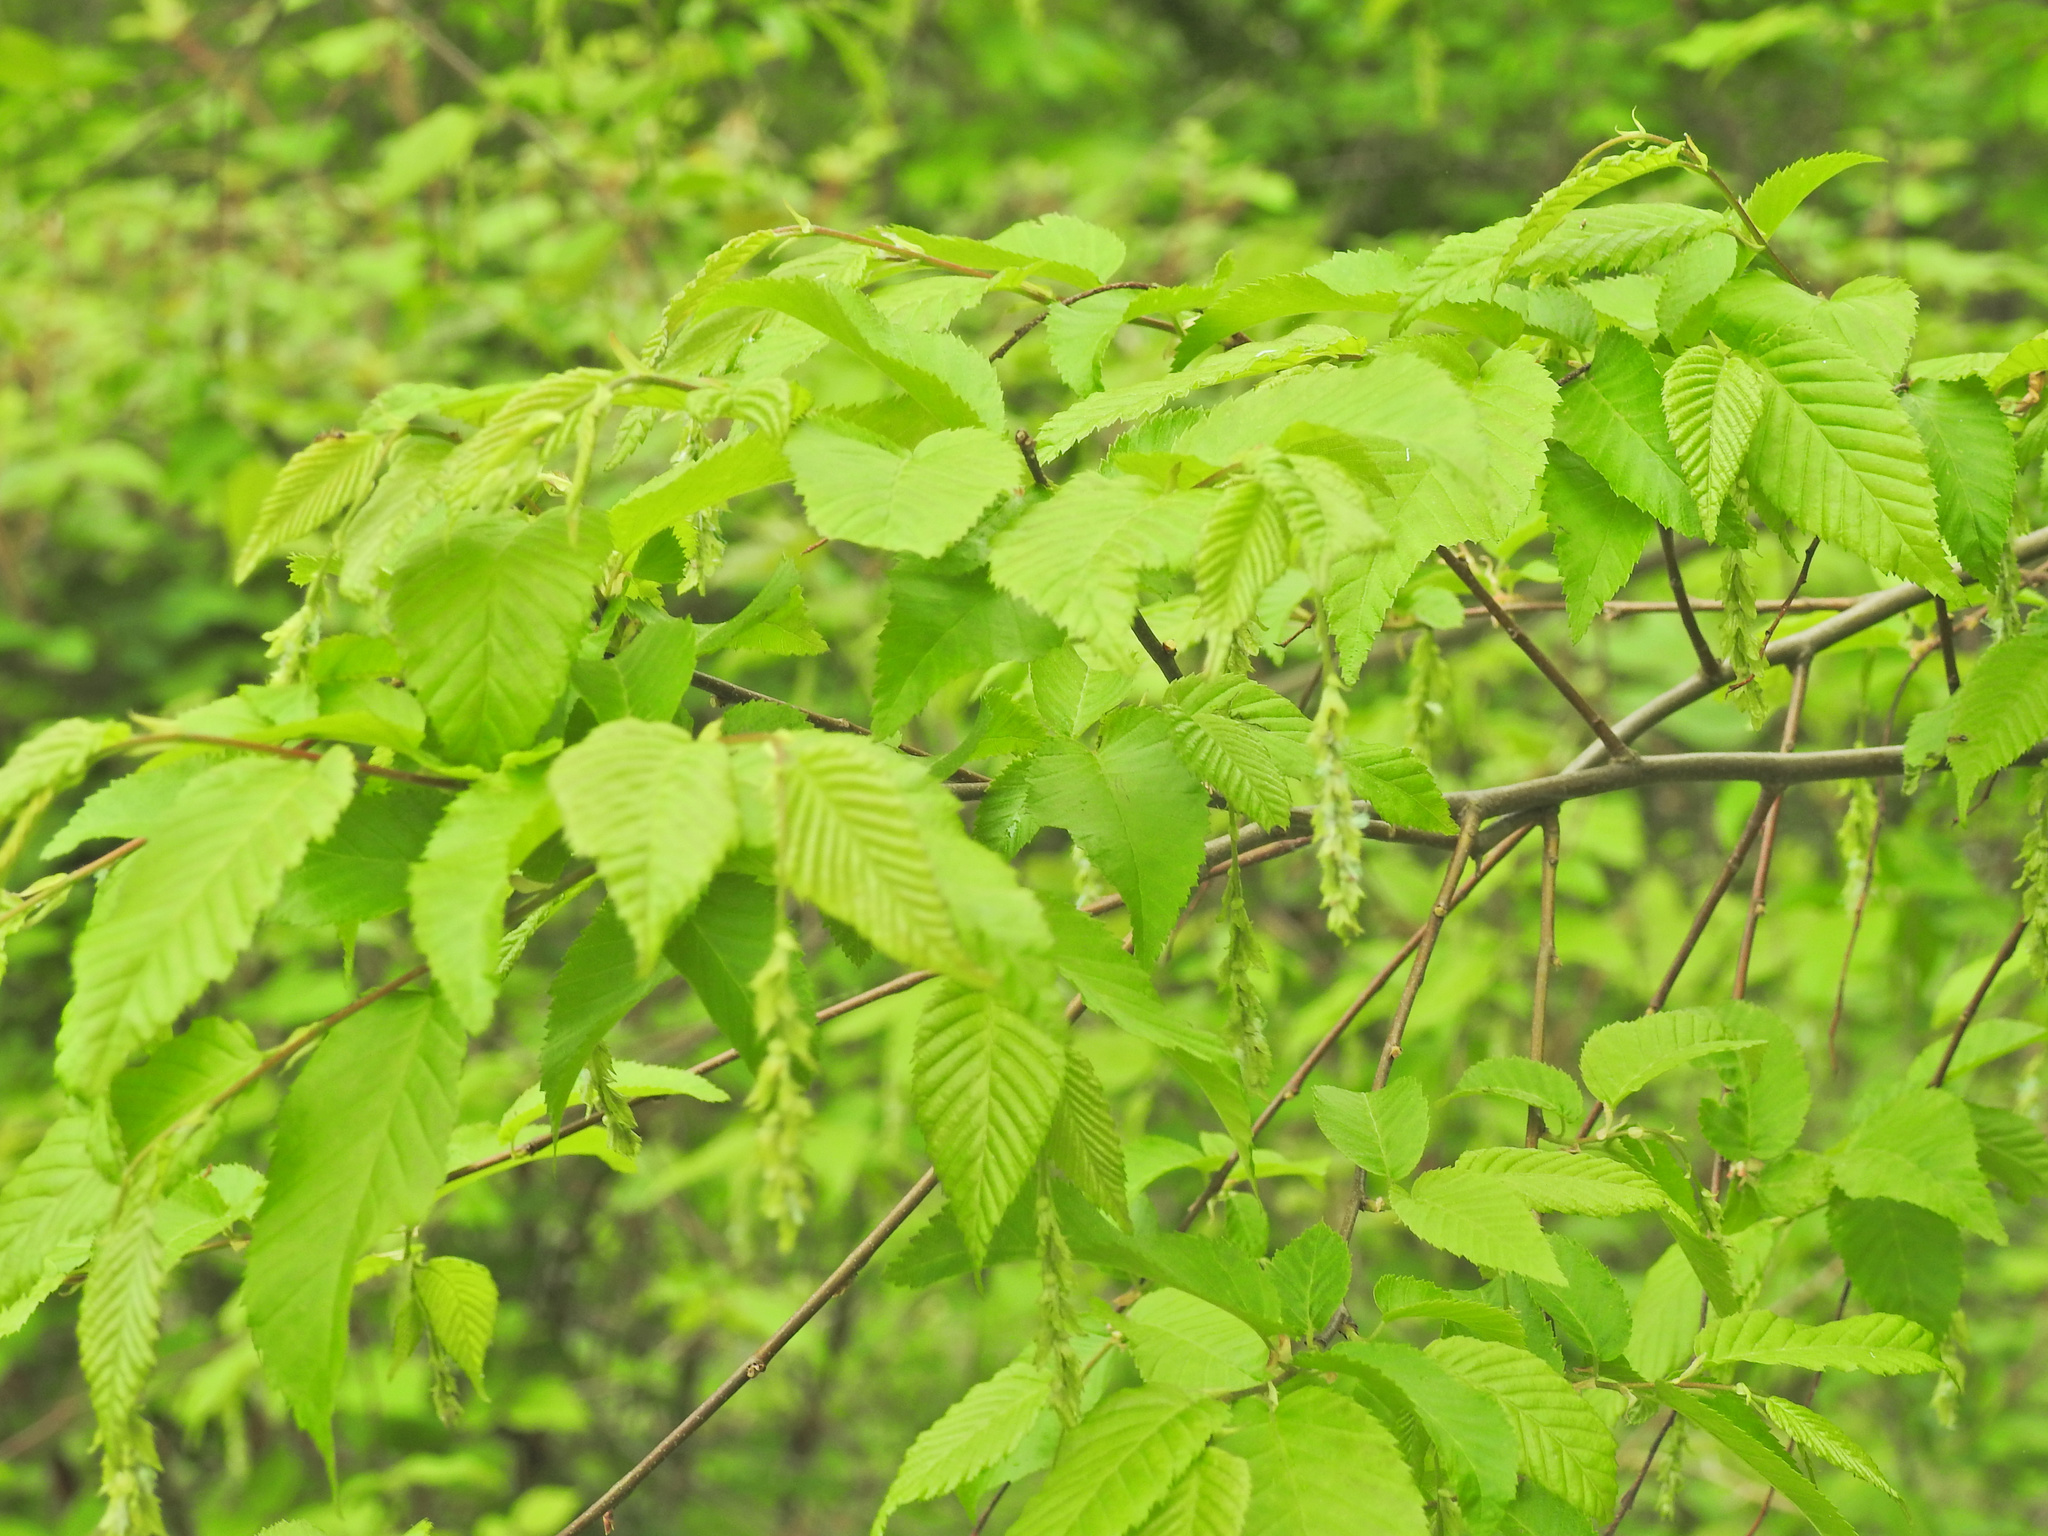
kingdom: Plantae
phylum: Tracheophyta
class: Magnoliopsida
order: Fagales
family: Betulaceae
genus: Carpinus
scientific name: Carpinus caroliniana
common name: American hornbeam
